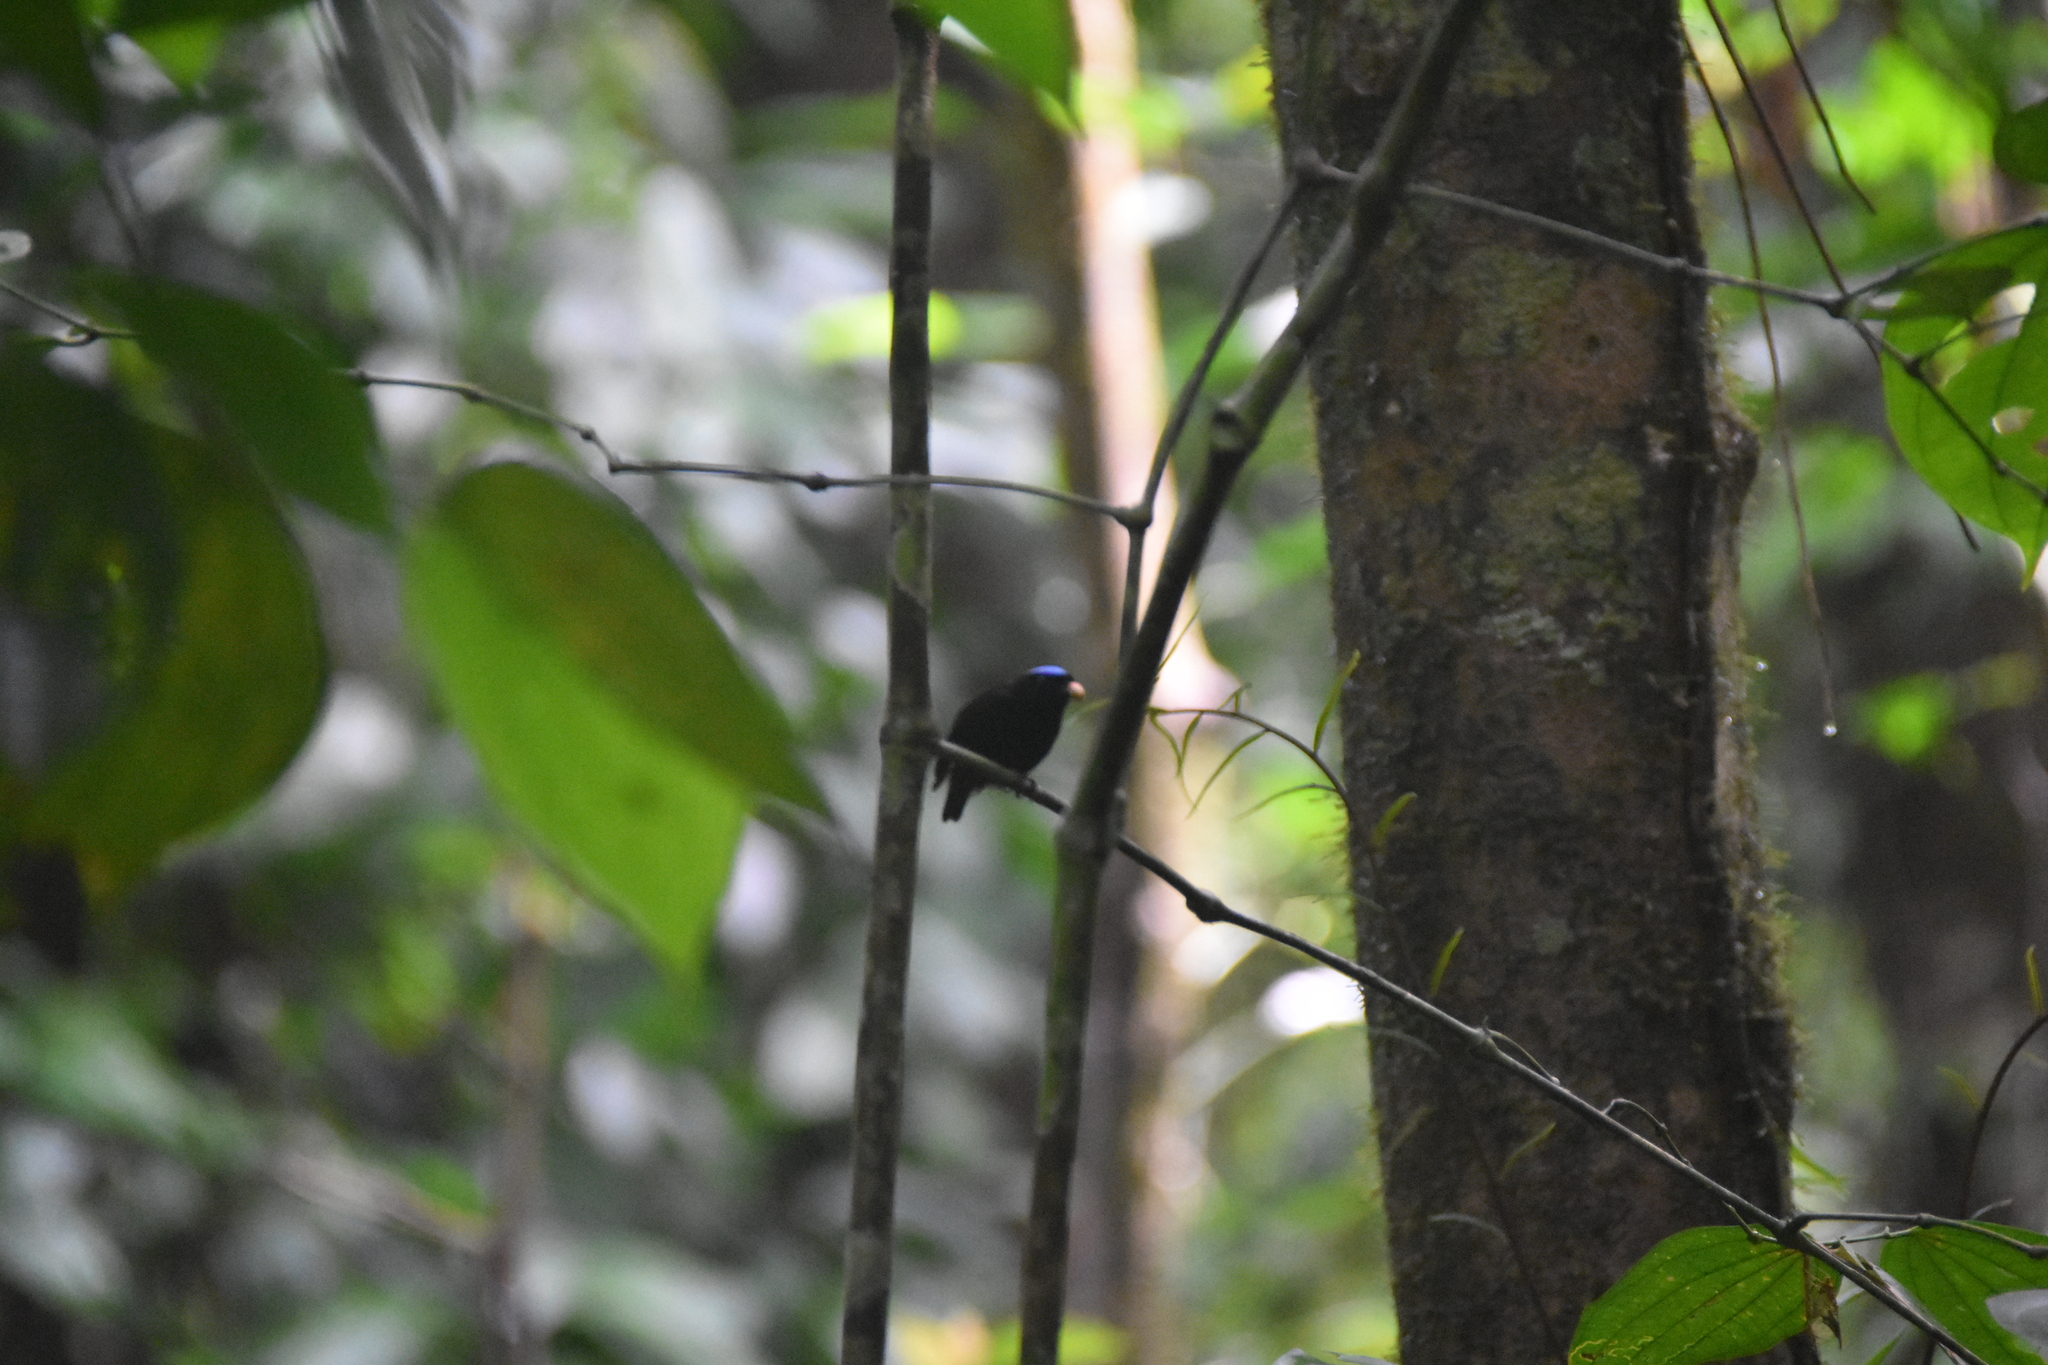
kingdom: Animalia
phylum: Chordata
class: Aves
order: Passeriformes
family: Pipridae
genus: Lepidothrix
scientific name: Lepidothrix coronata
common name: Blue-crowned manakin
